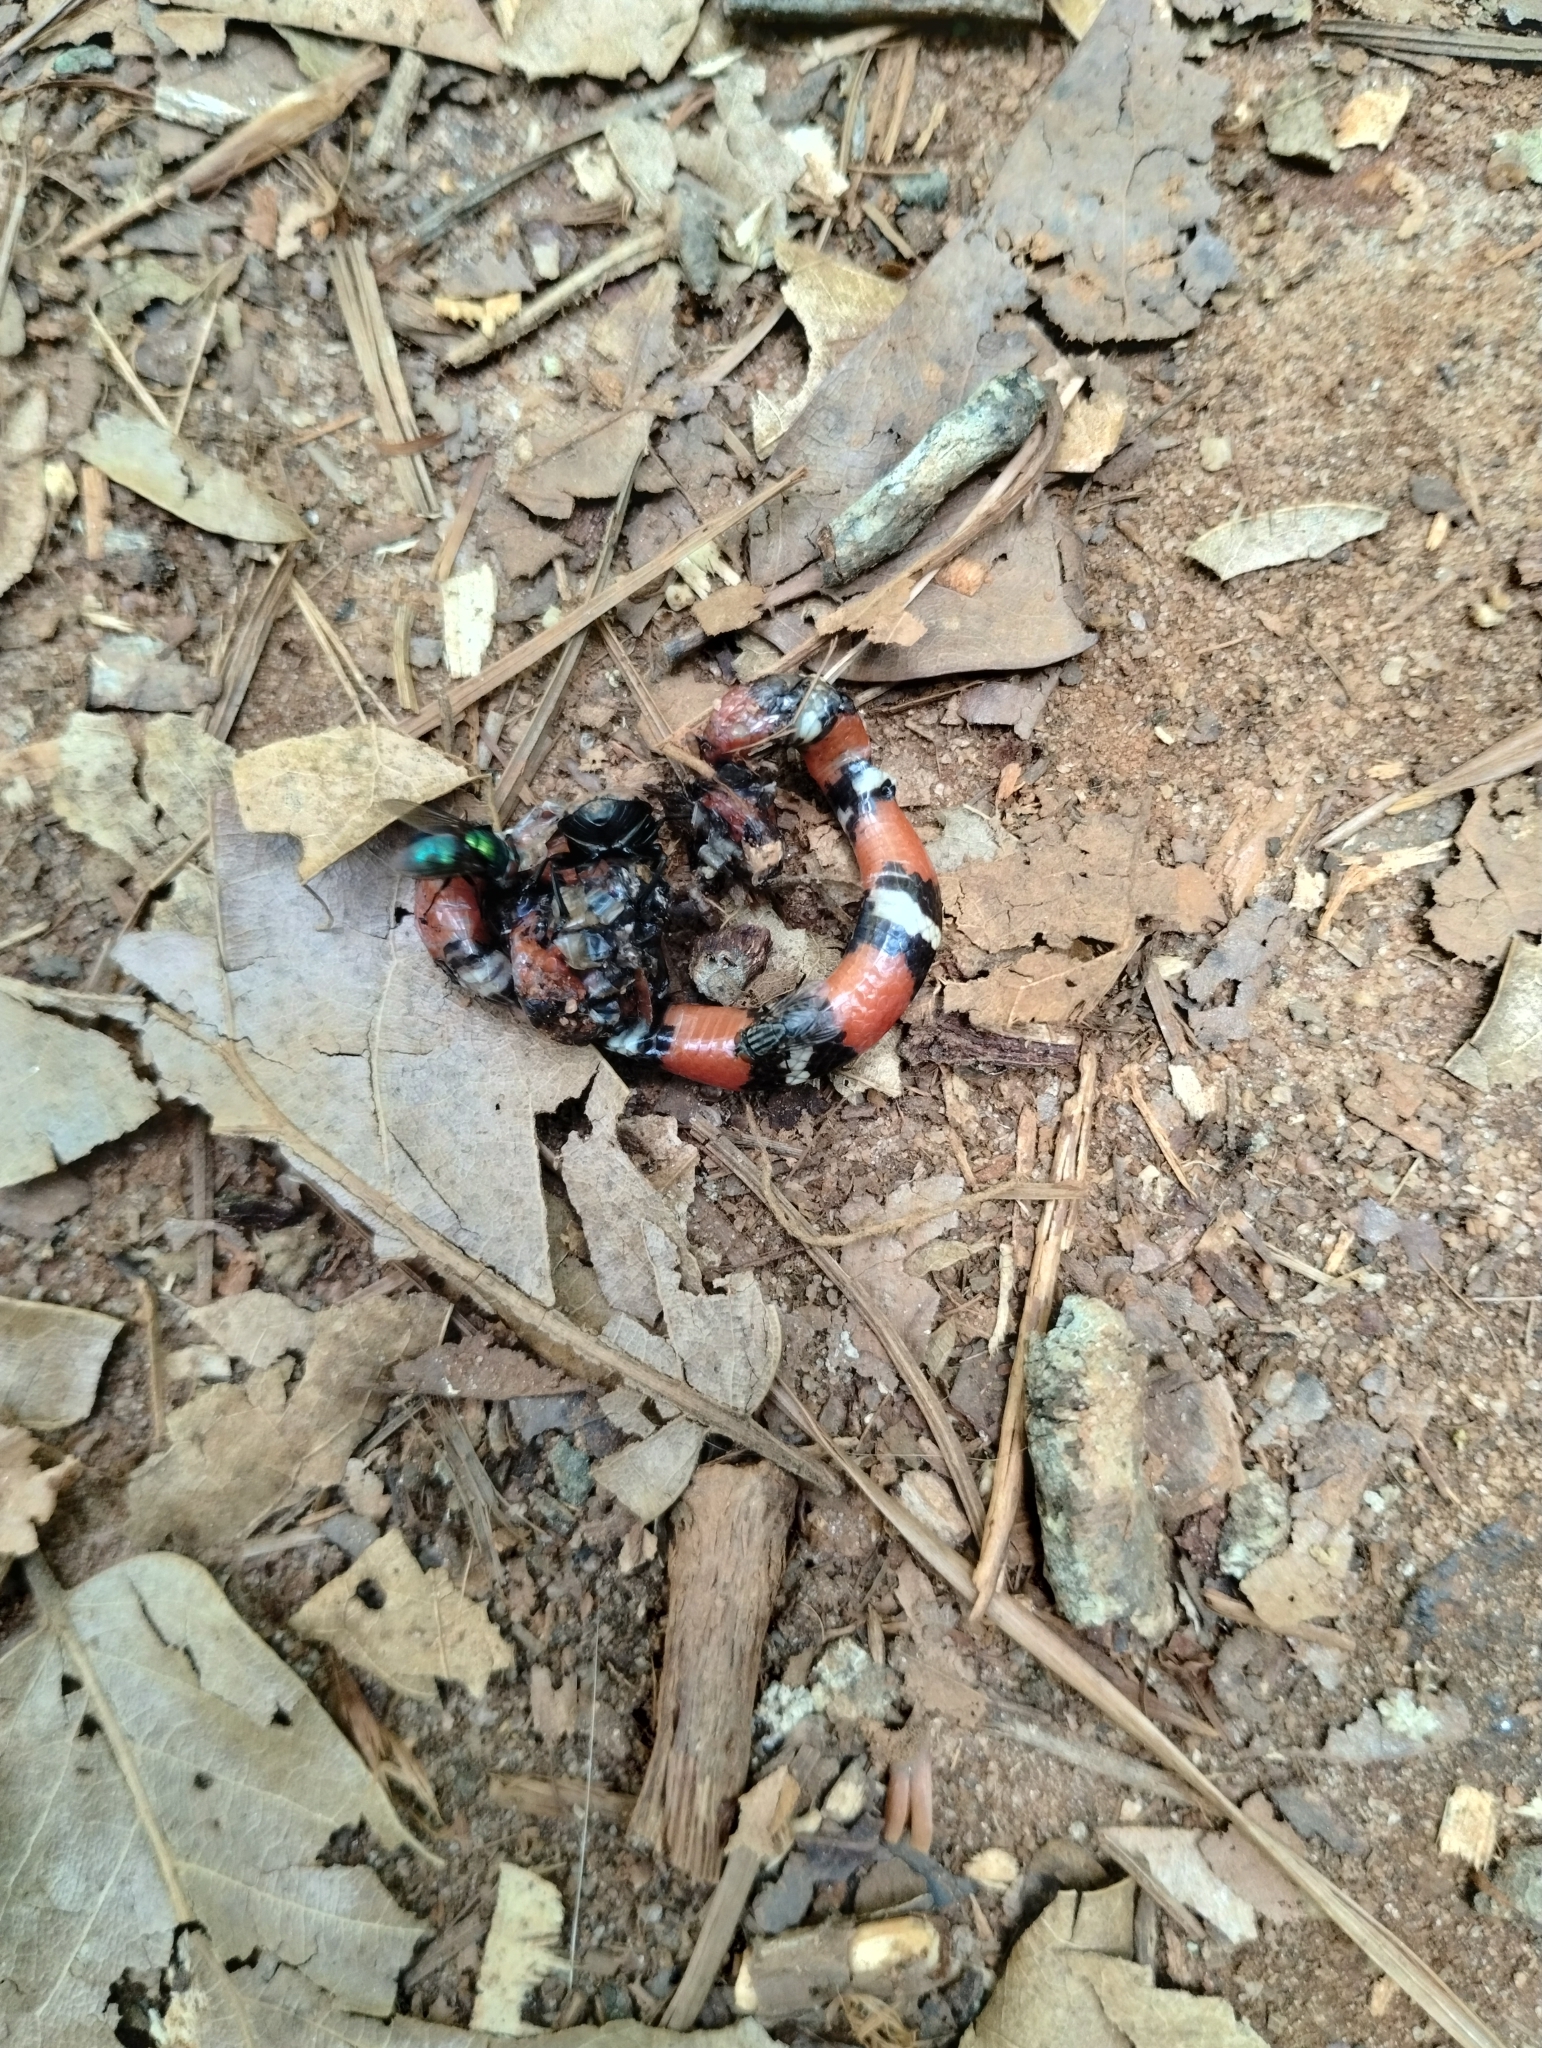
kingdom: Animalia
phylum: Chordata
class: Squamata
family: Colubridae
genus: Lampropeltis
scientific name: Lampropeltis elapsoides
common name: Scarlet kingsnake
